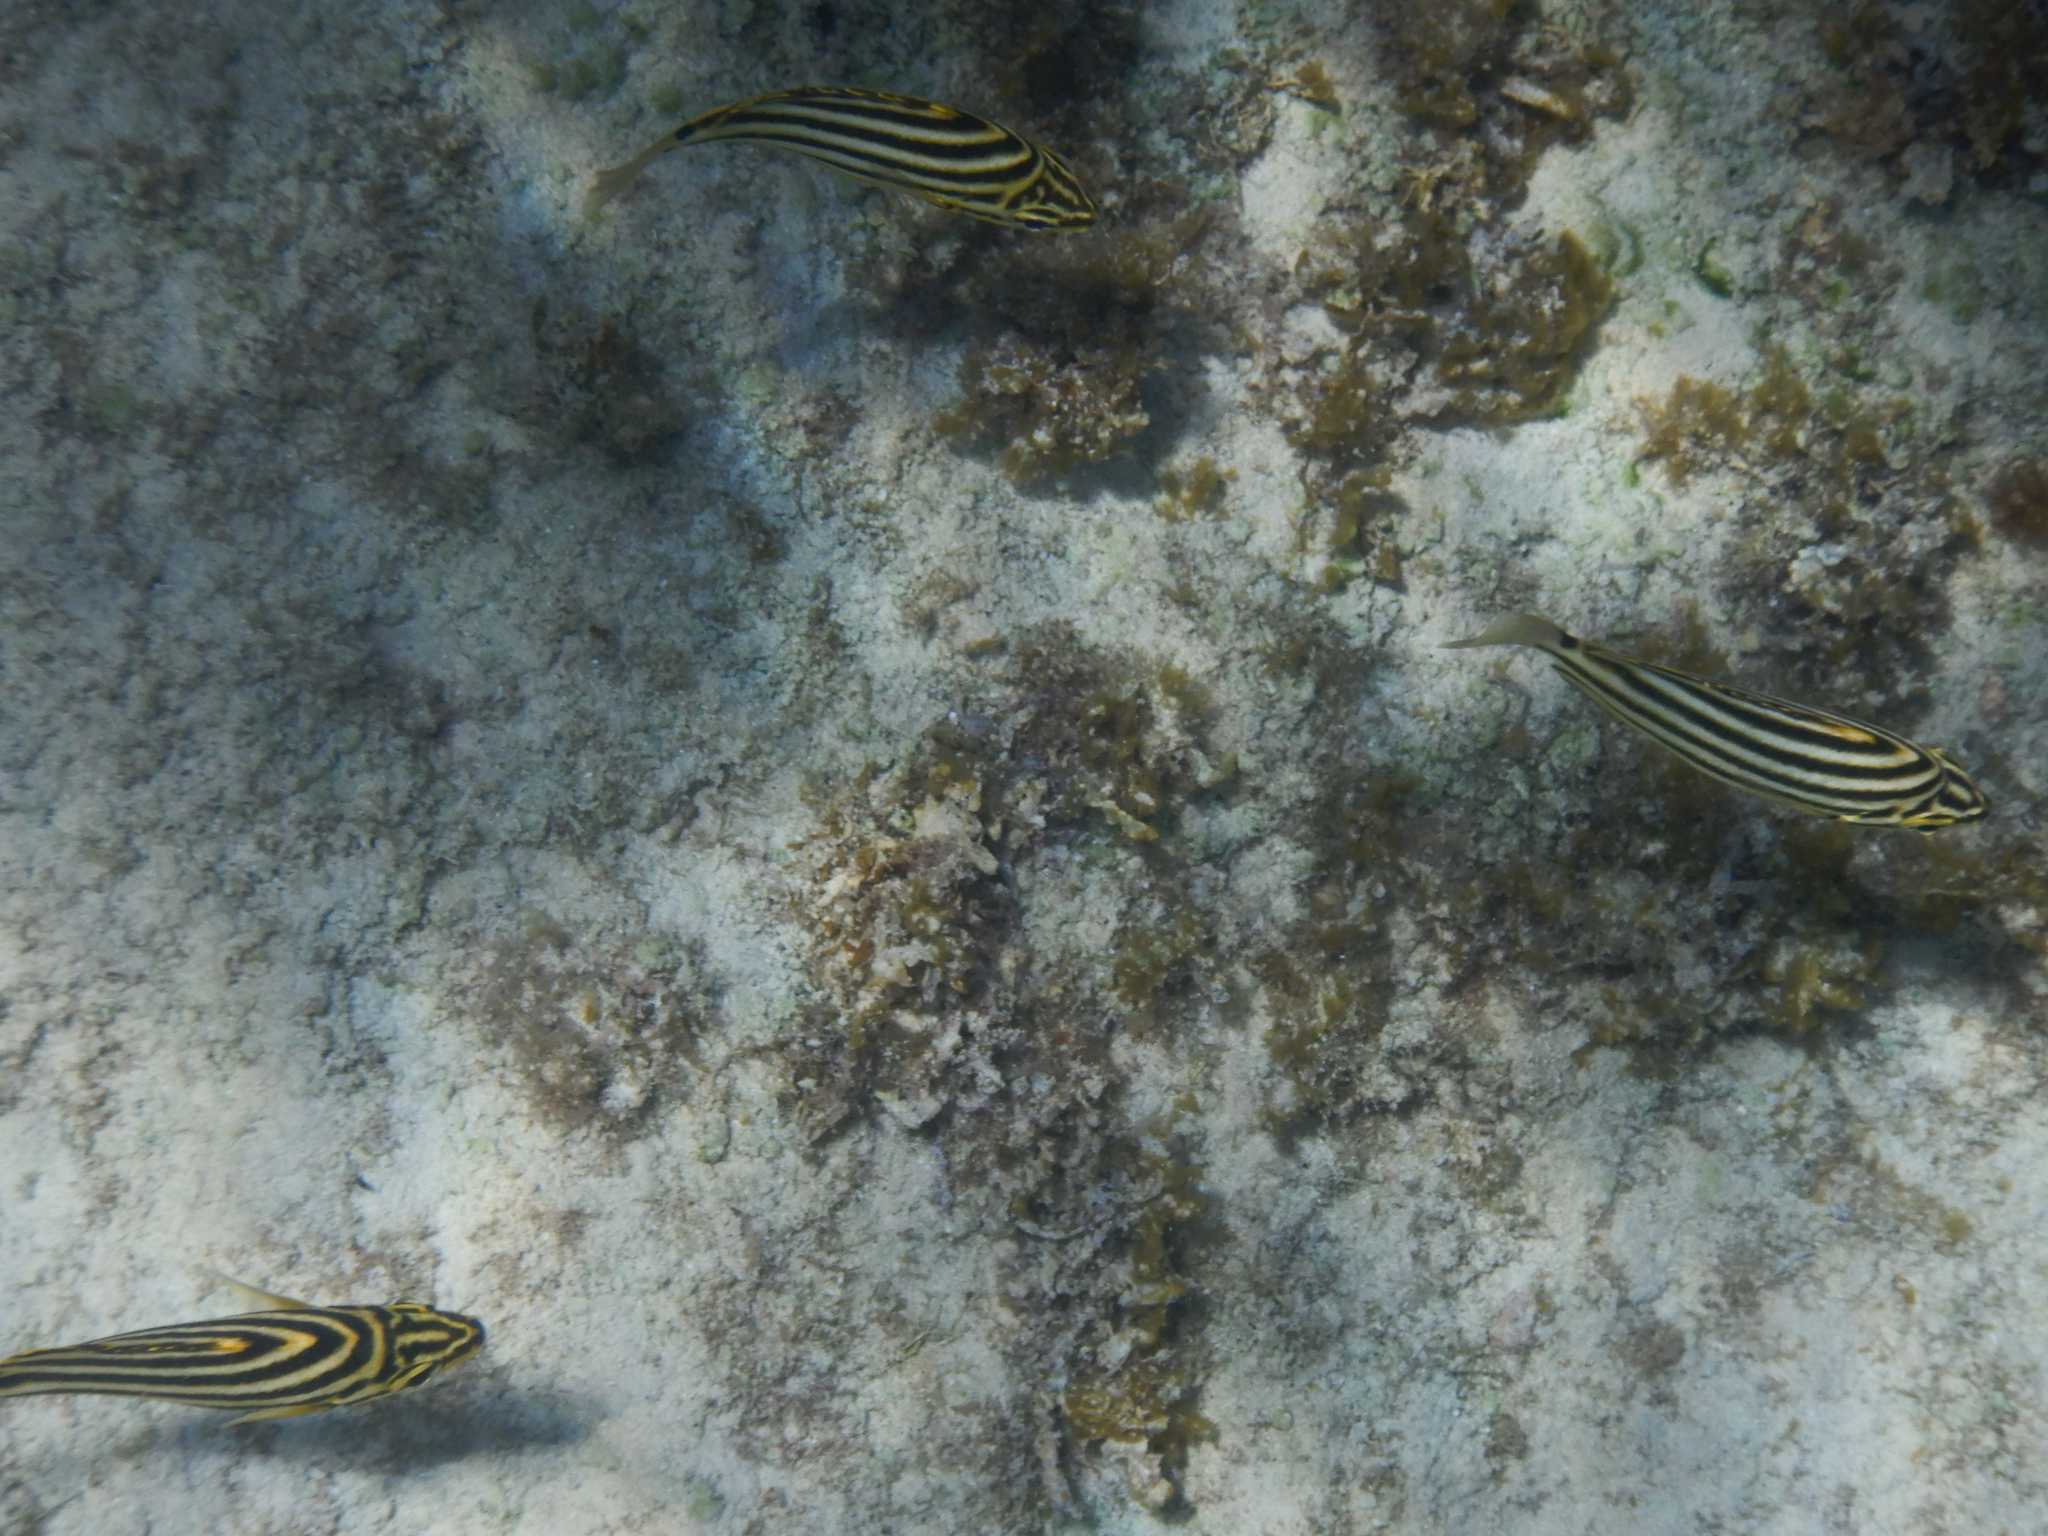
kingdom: Animalia
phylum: Chordata
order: Perciformes
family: Kyphosidae
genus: Microcanthus
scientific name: Microcanthus strigatus
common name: Stripey
